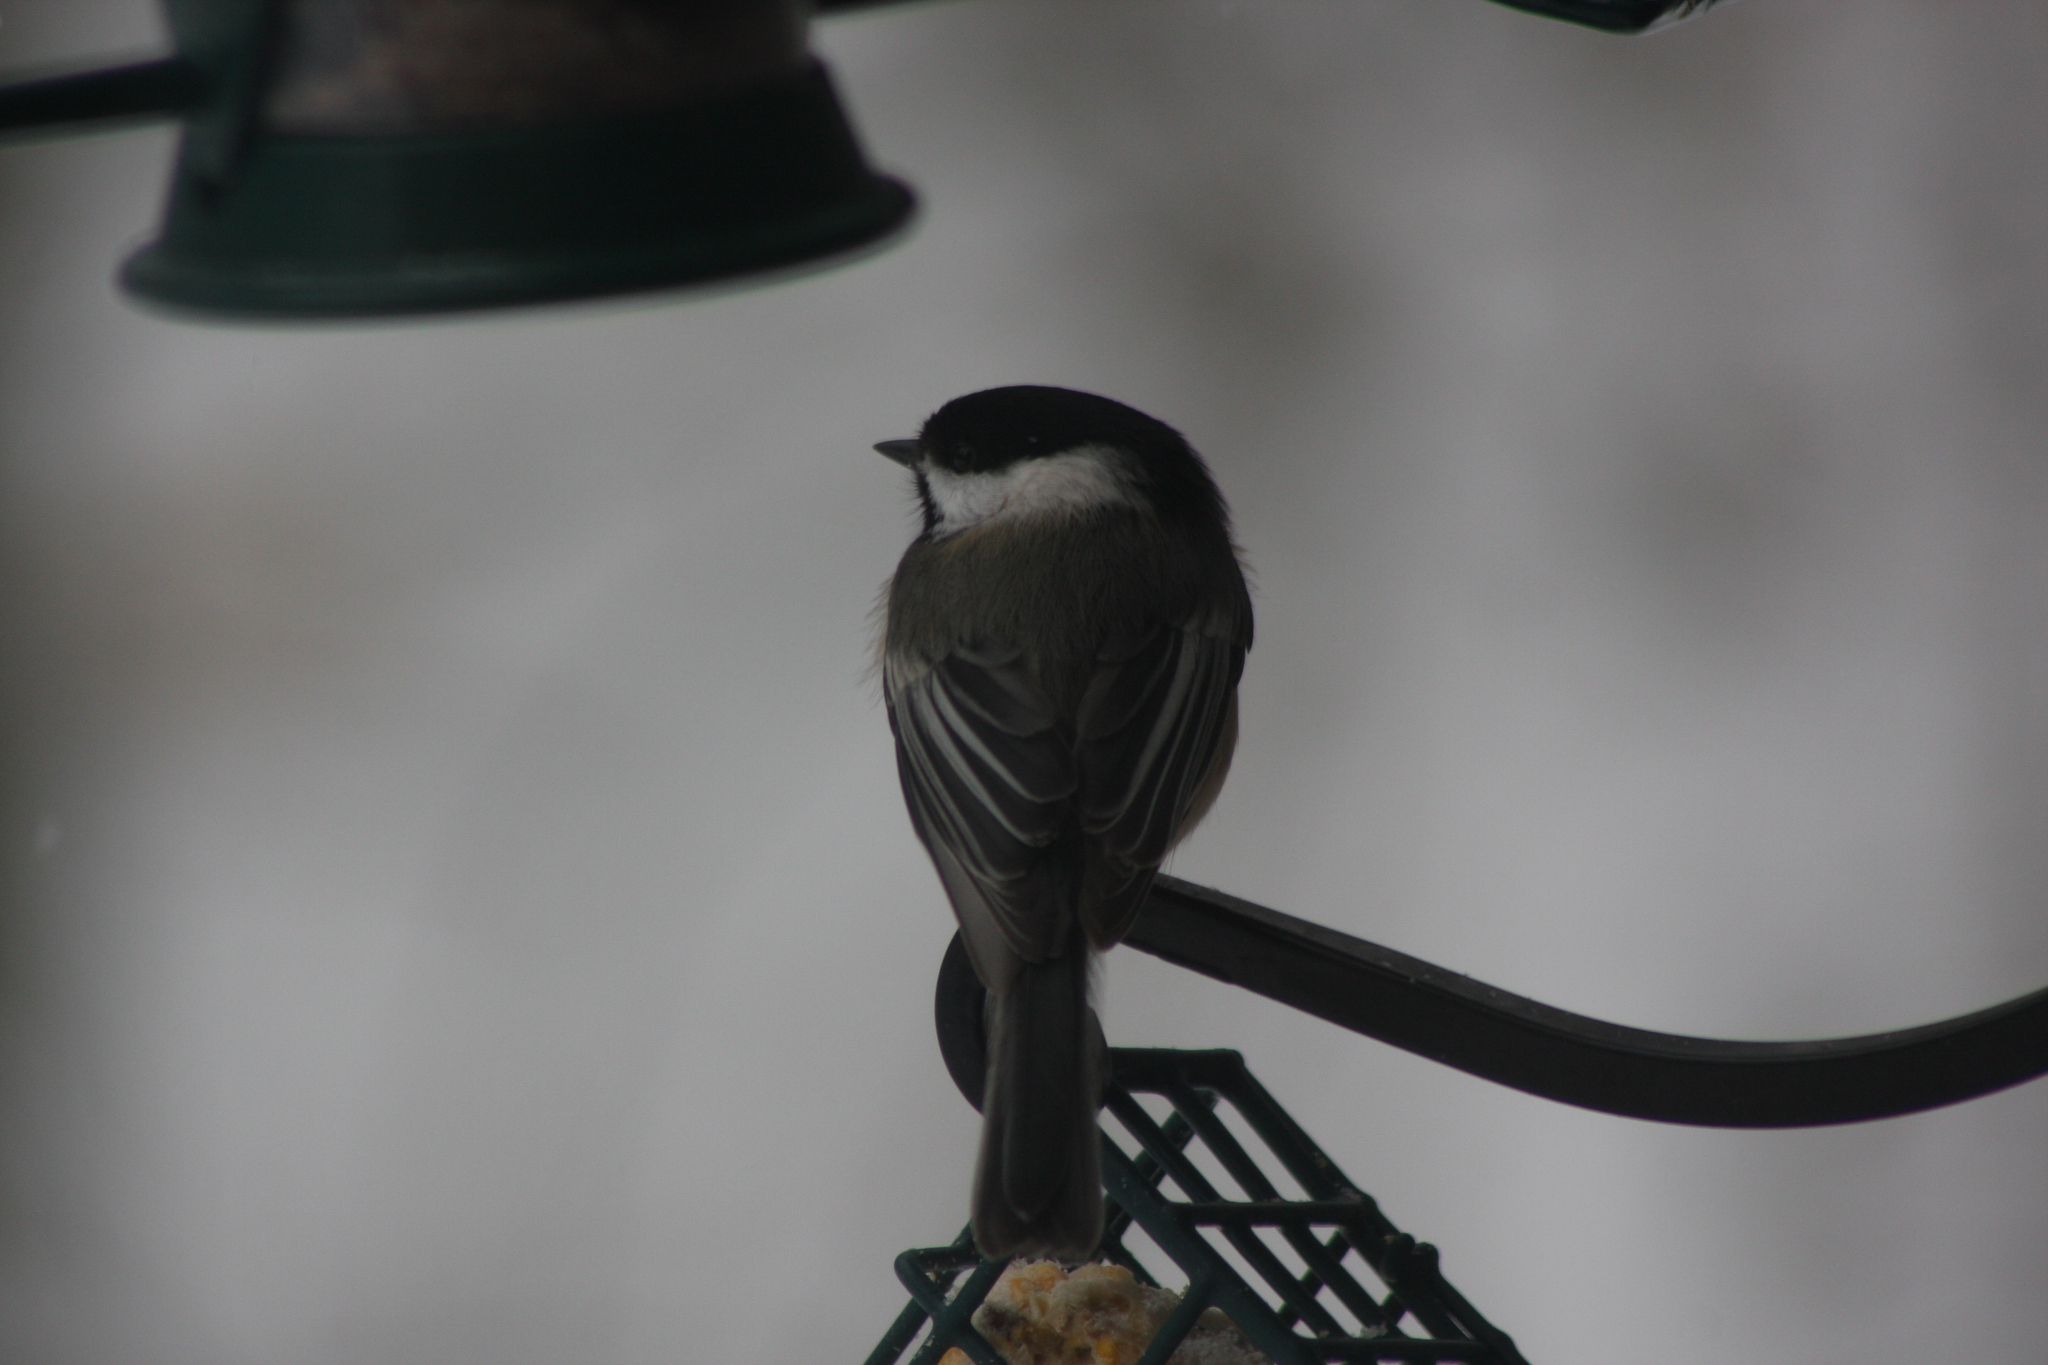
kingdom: Animalia
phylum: Chordata
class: Aves
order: Passeriformes
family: Paridae
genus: Poecile
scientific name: Poecile atricapillus
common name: Black-capped chickadee
